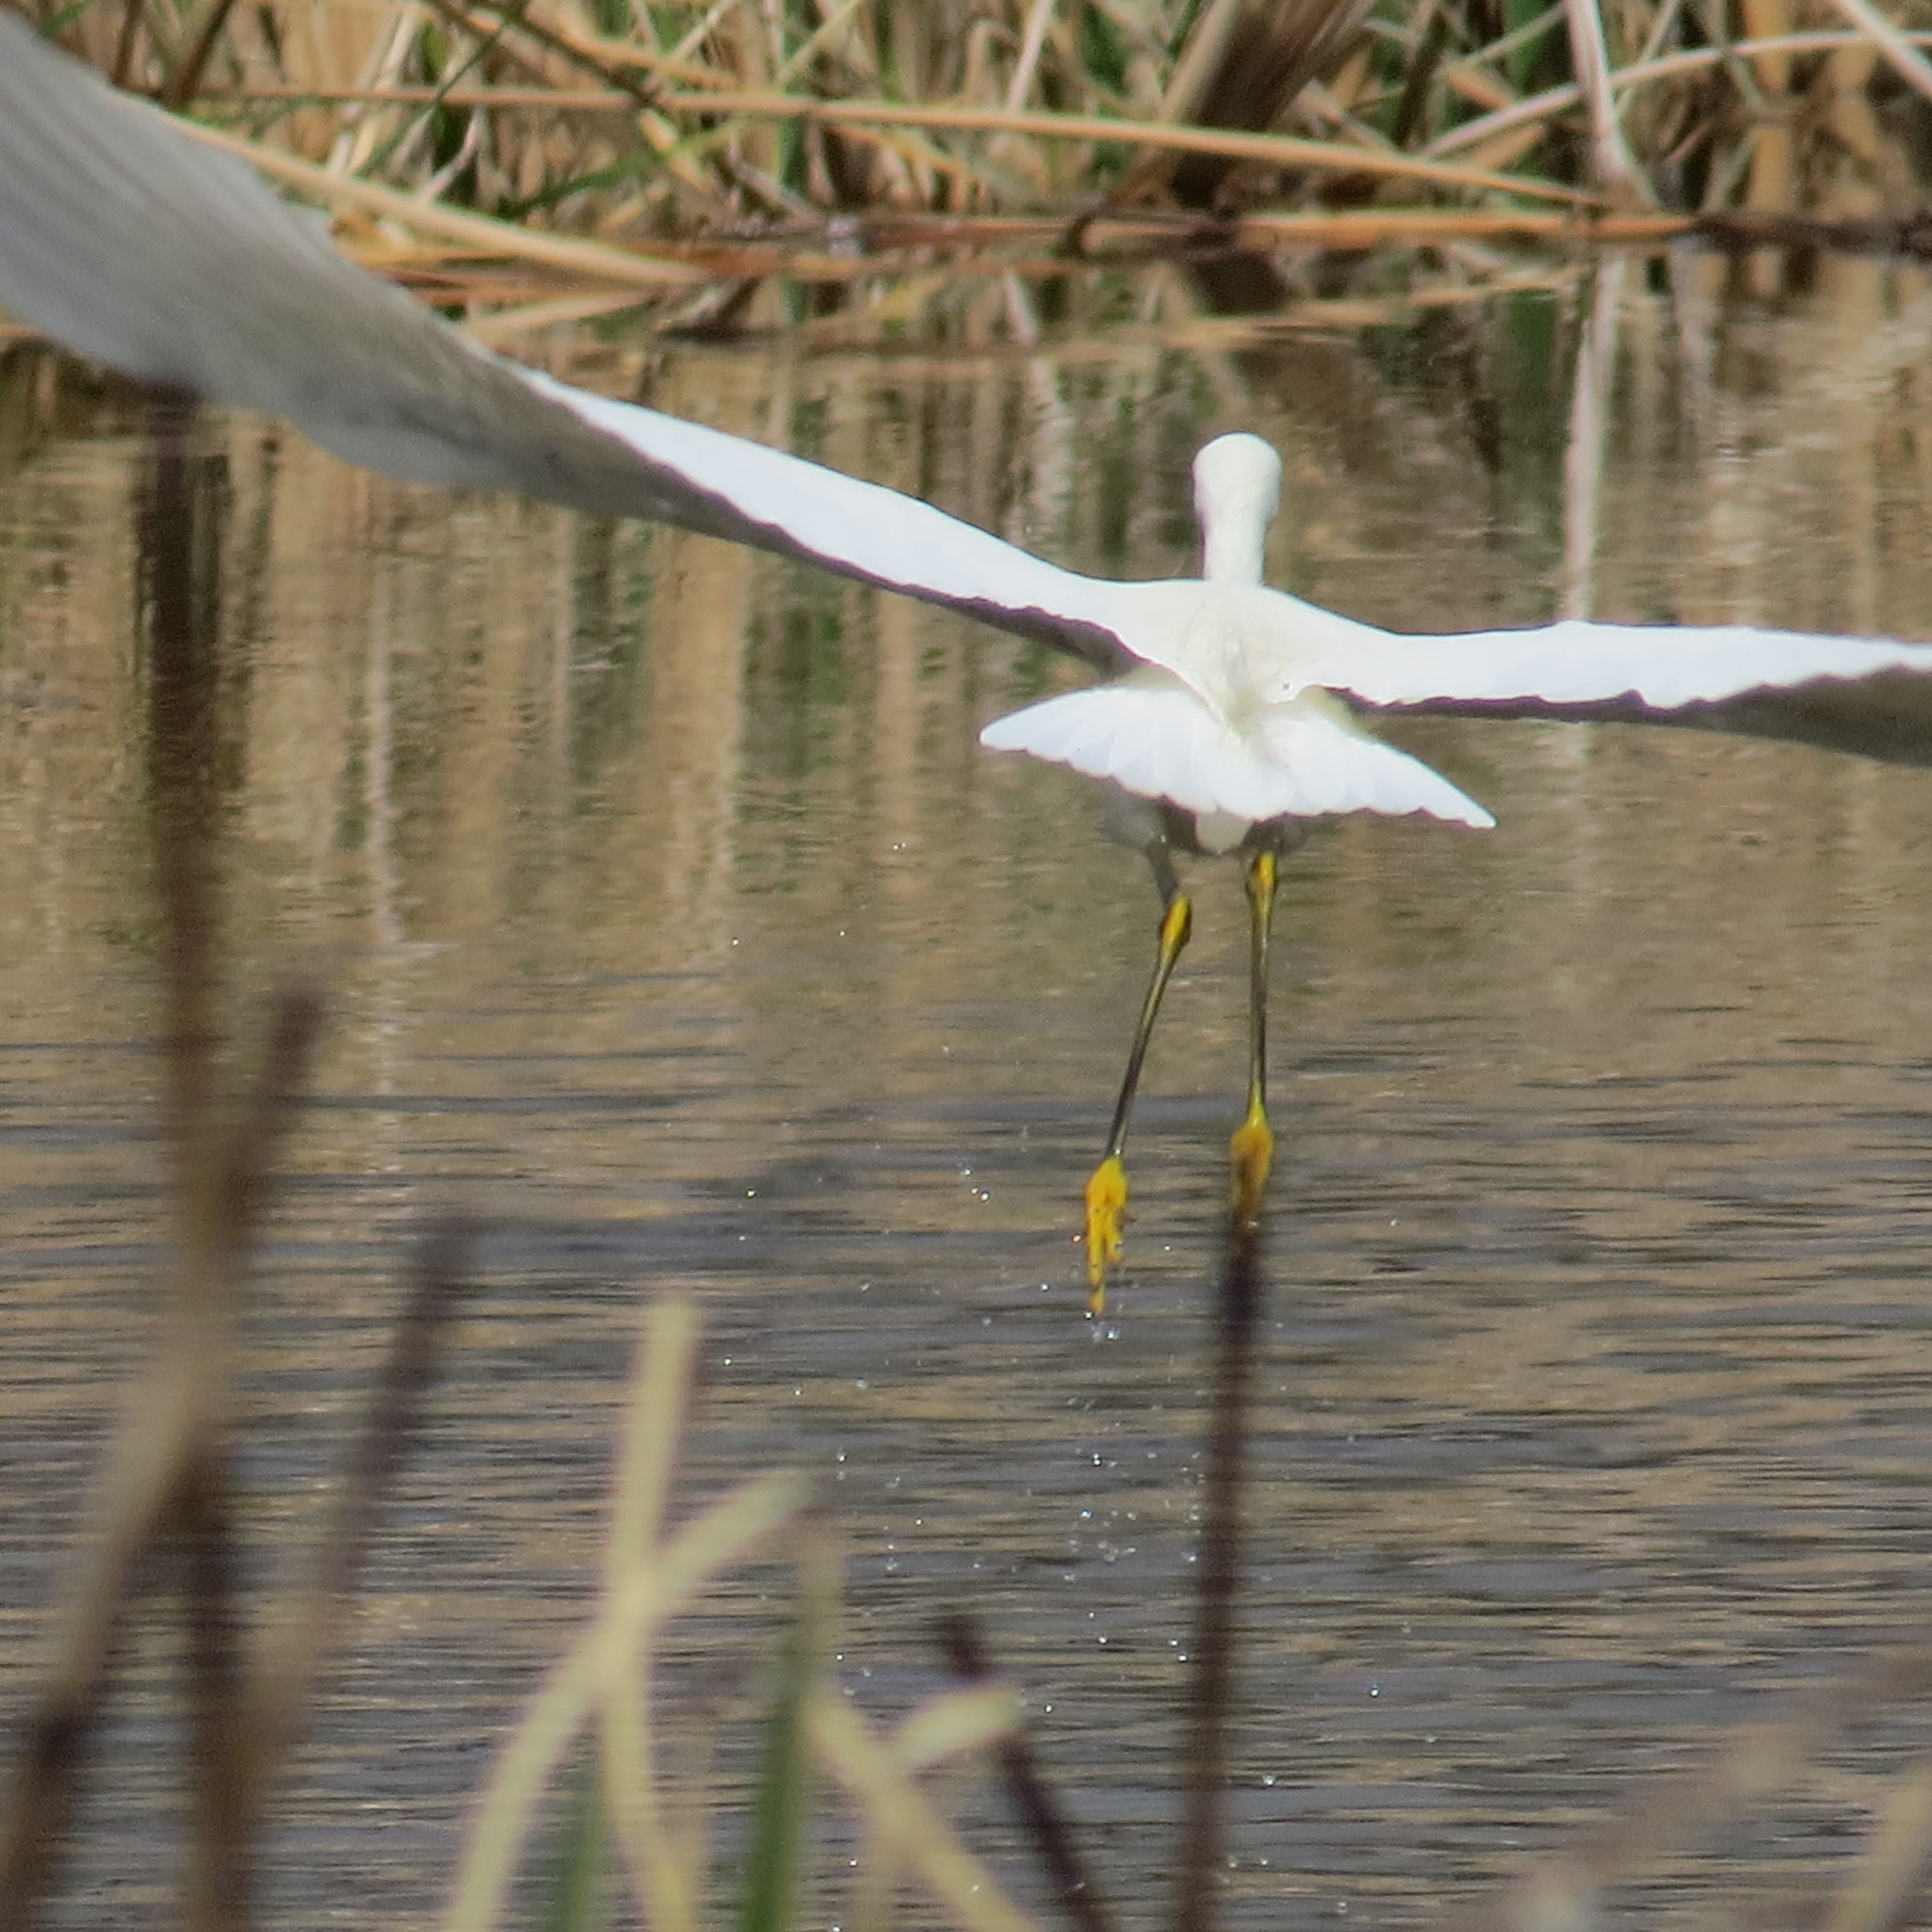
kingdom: Animalia
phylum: Chordata
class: Aves
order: Pelecaniformes
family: Ardeidae
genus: Egretta
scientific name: Egretta thula
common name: Snowy egret
